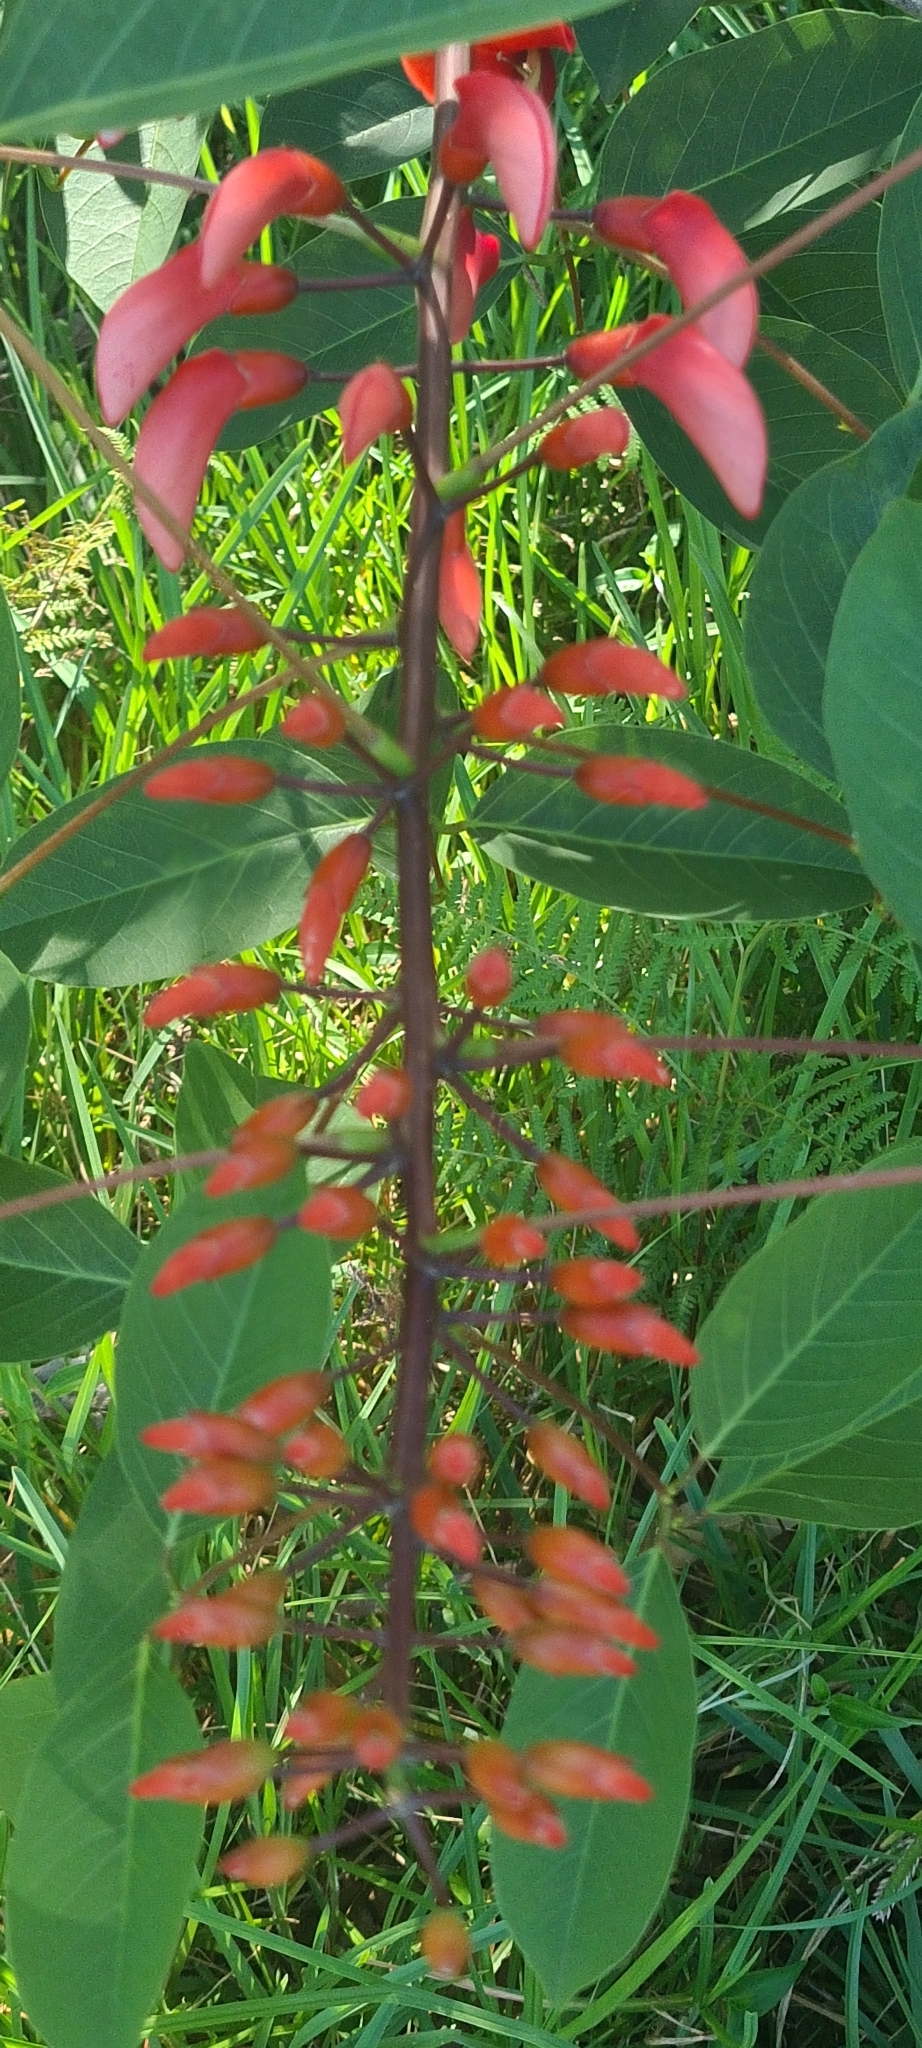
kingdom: Plantae
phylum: Tracheophyta
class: Magnoliopsida
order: Fabales
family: Fabaceae
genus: Erythrina
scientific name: Erythrina crista-galli
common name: Cockspur coral tree
